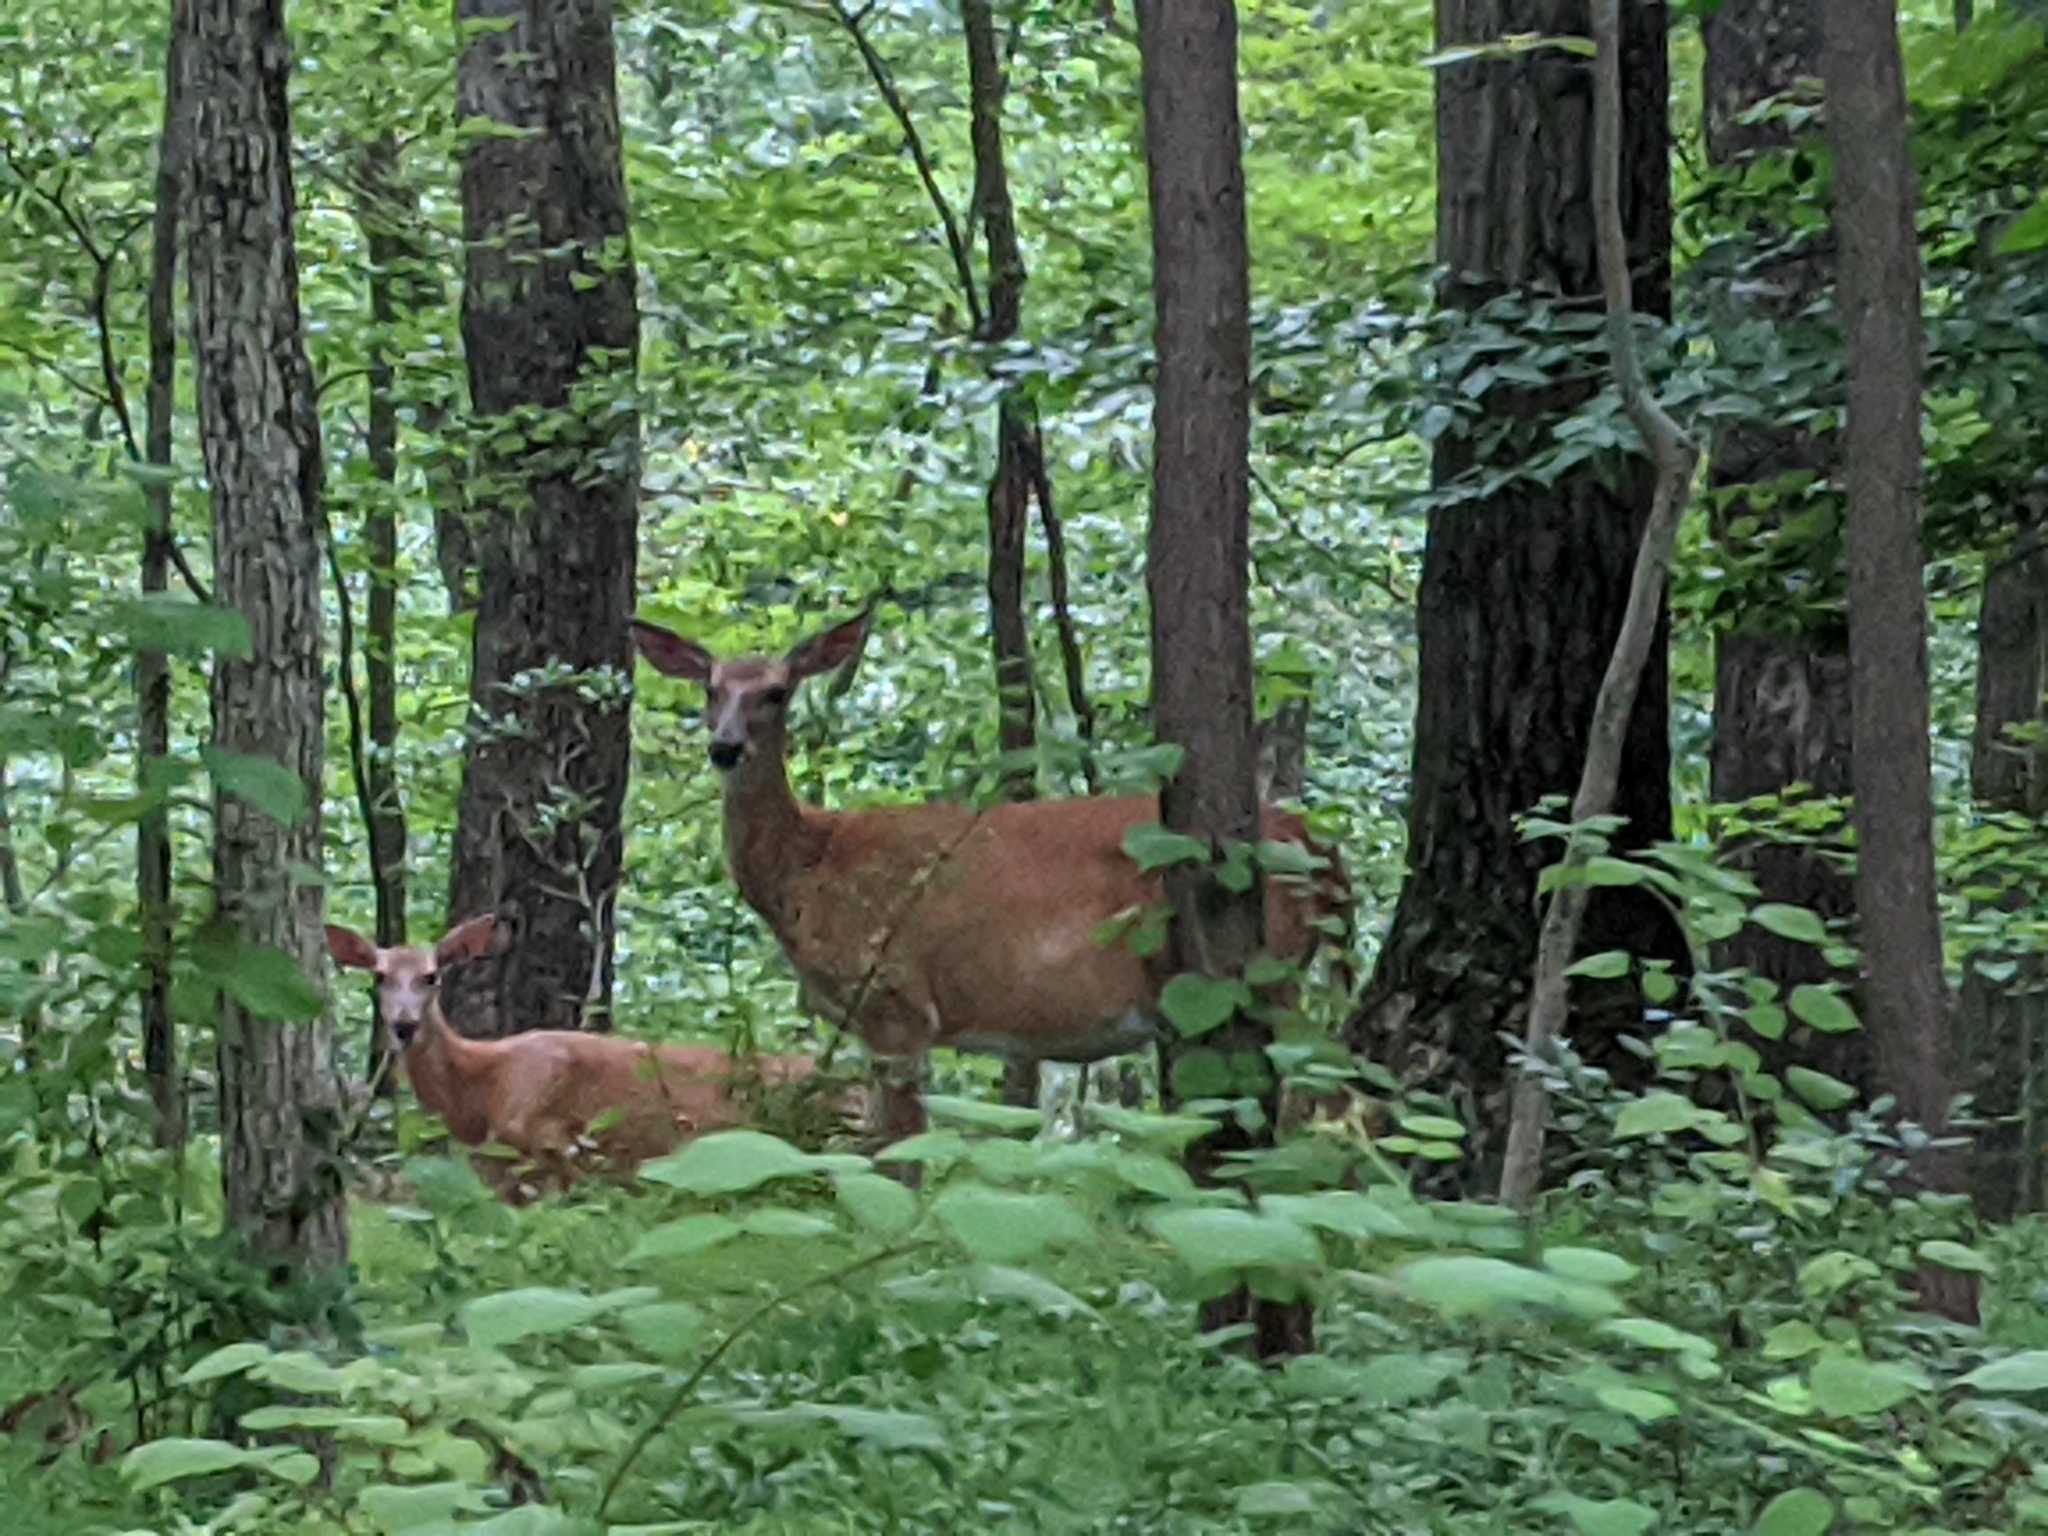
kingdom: Animalia
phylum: Chordata
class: Mammalia
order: Artiodactyla
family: Cervidae
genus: Odocoileus
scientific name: Odocoileus virginianus
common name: White-tailed deer
